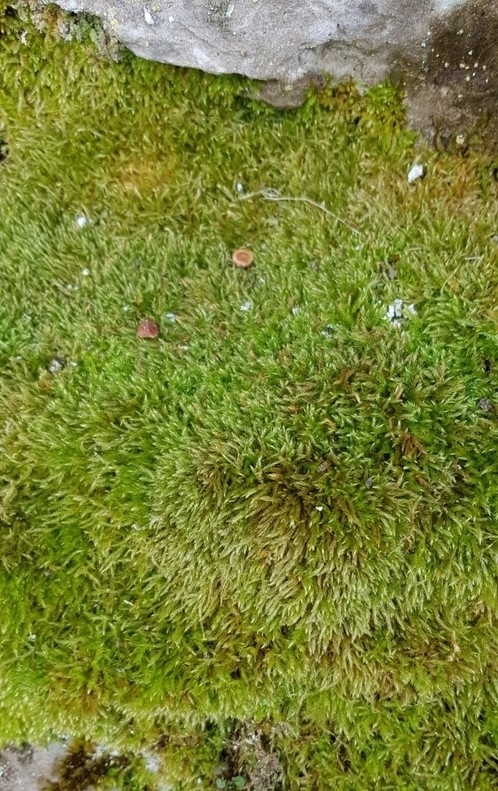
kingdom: Plantae
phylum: Bryophyta
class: Bryopsida
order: Hypnales
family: Brachytheciaceae
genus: Homalothecium
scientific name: Homalothecium sericeum
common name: Silky wall feather-moss
